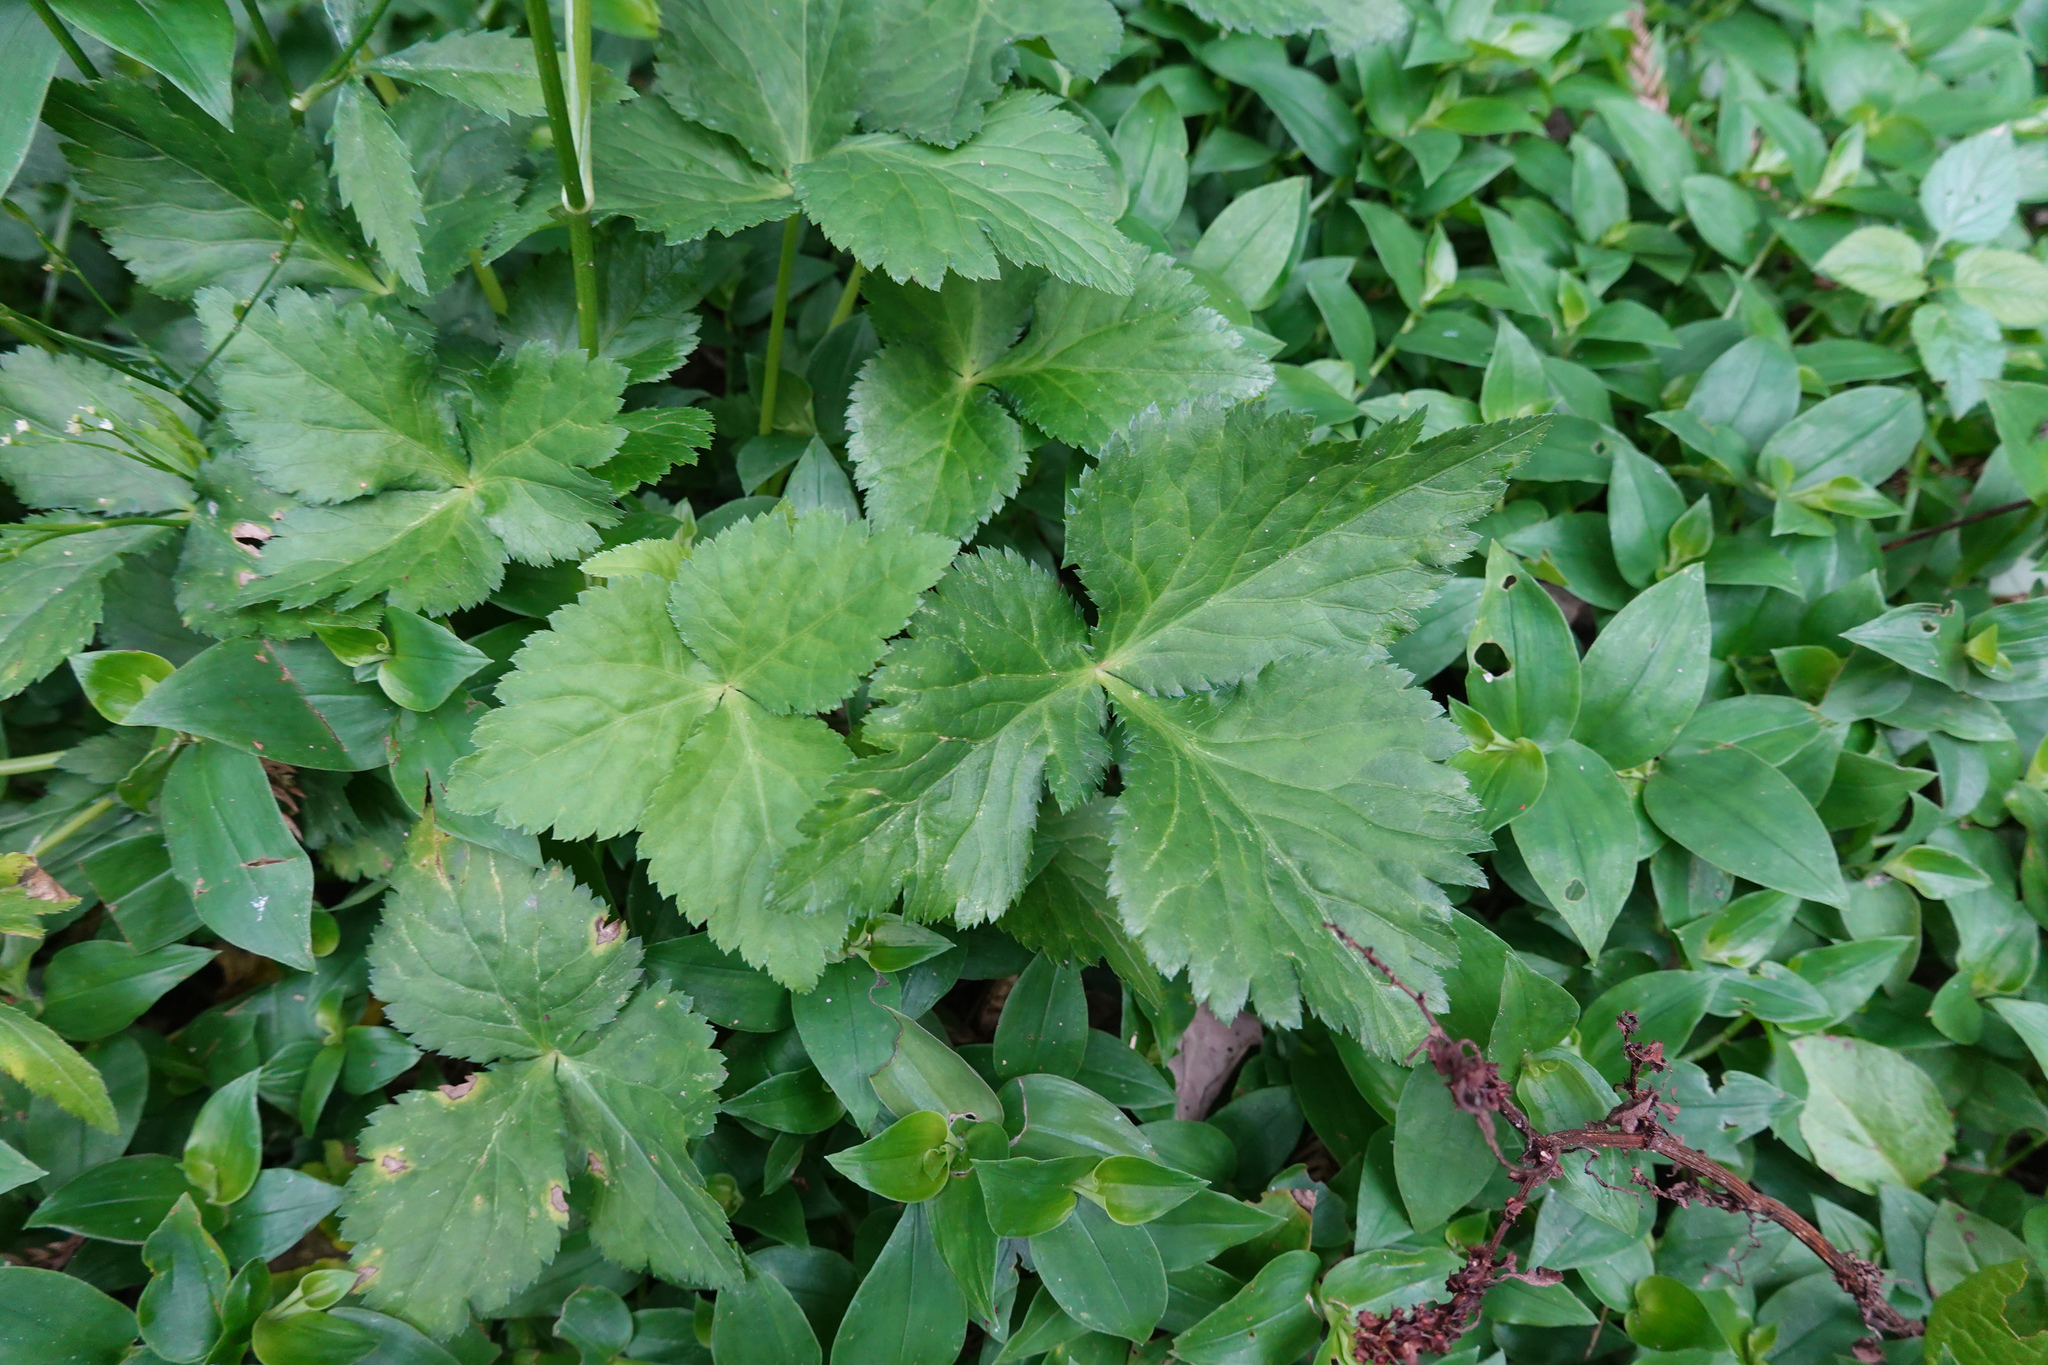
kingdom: Plantae
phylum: Tracheophyta
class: Magnoliopsida
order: Apiales
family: Apiaceae
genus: Cryptotaenia
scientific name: Cryptotaenia japonica
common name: Japanese cryptotaenia
